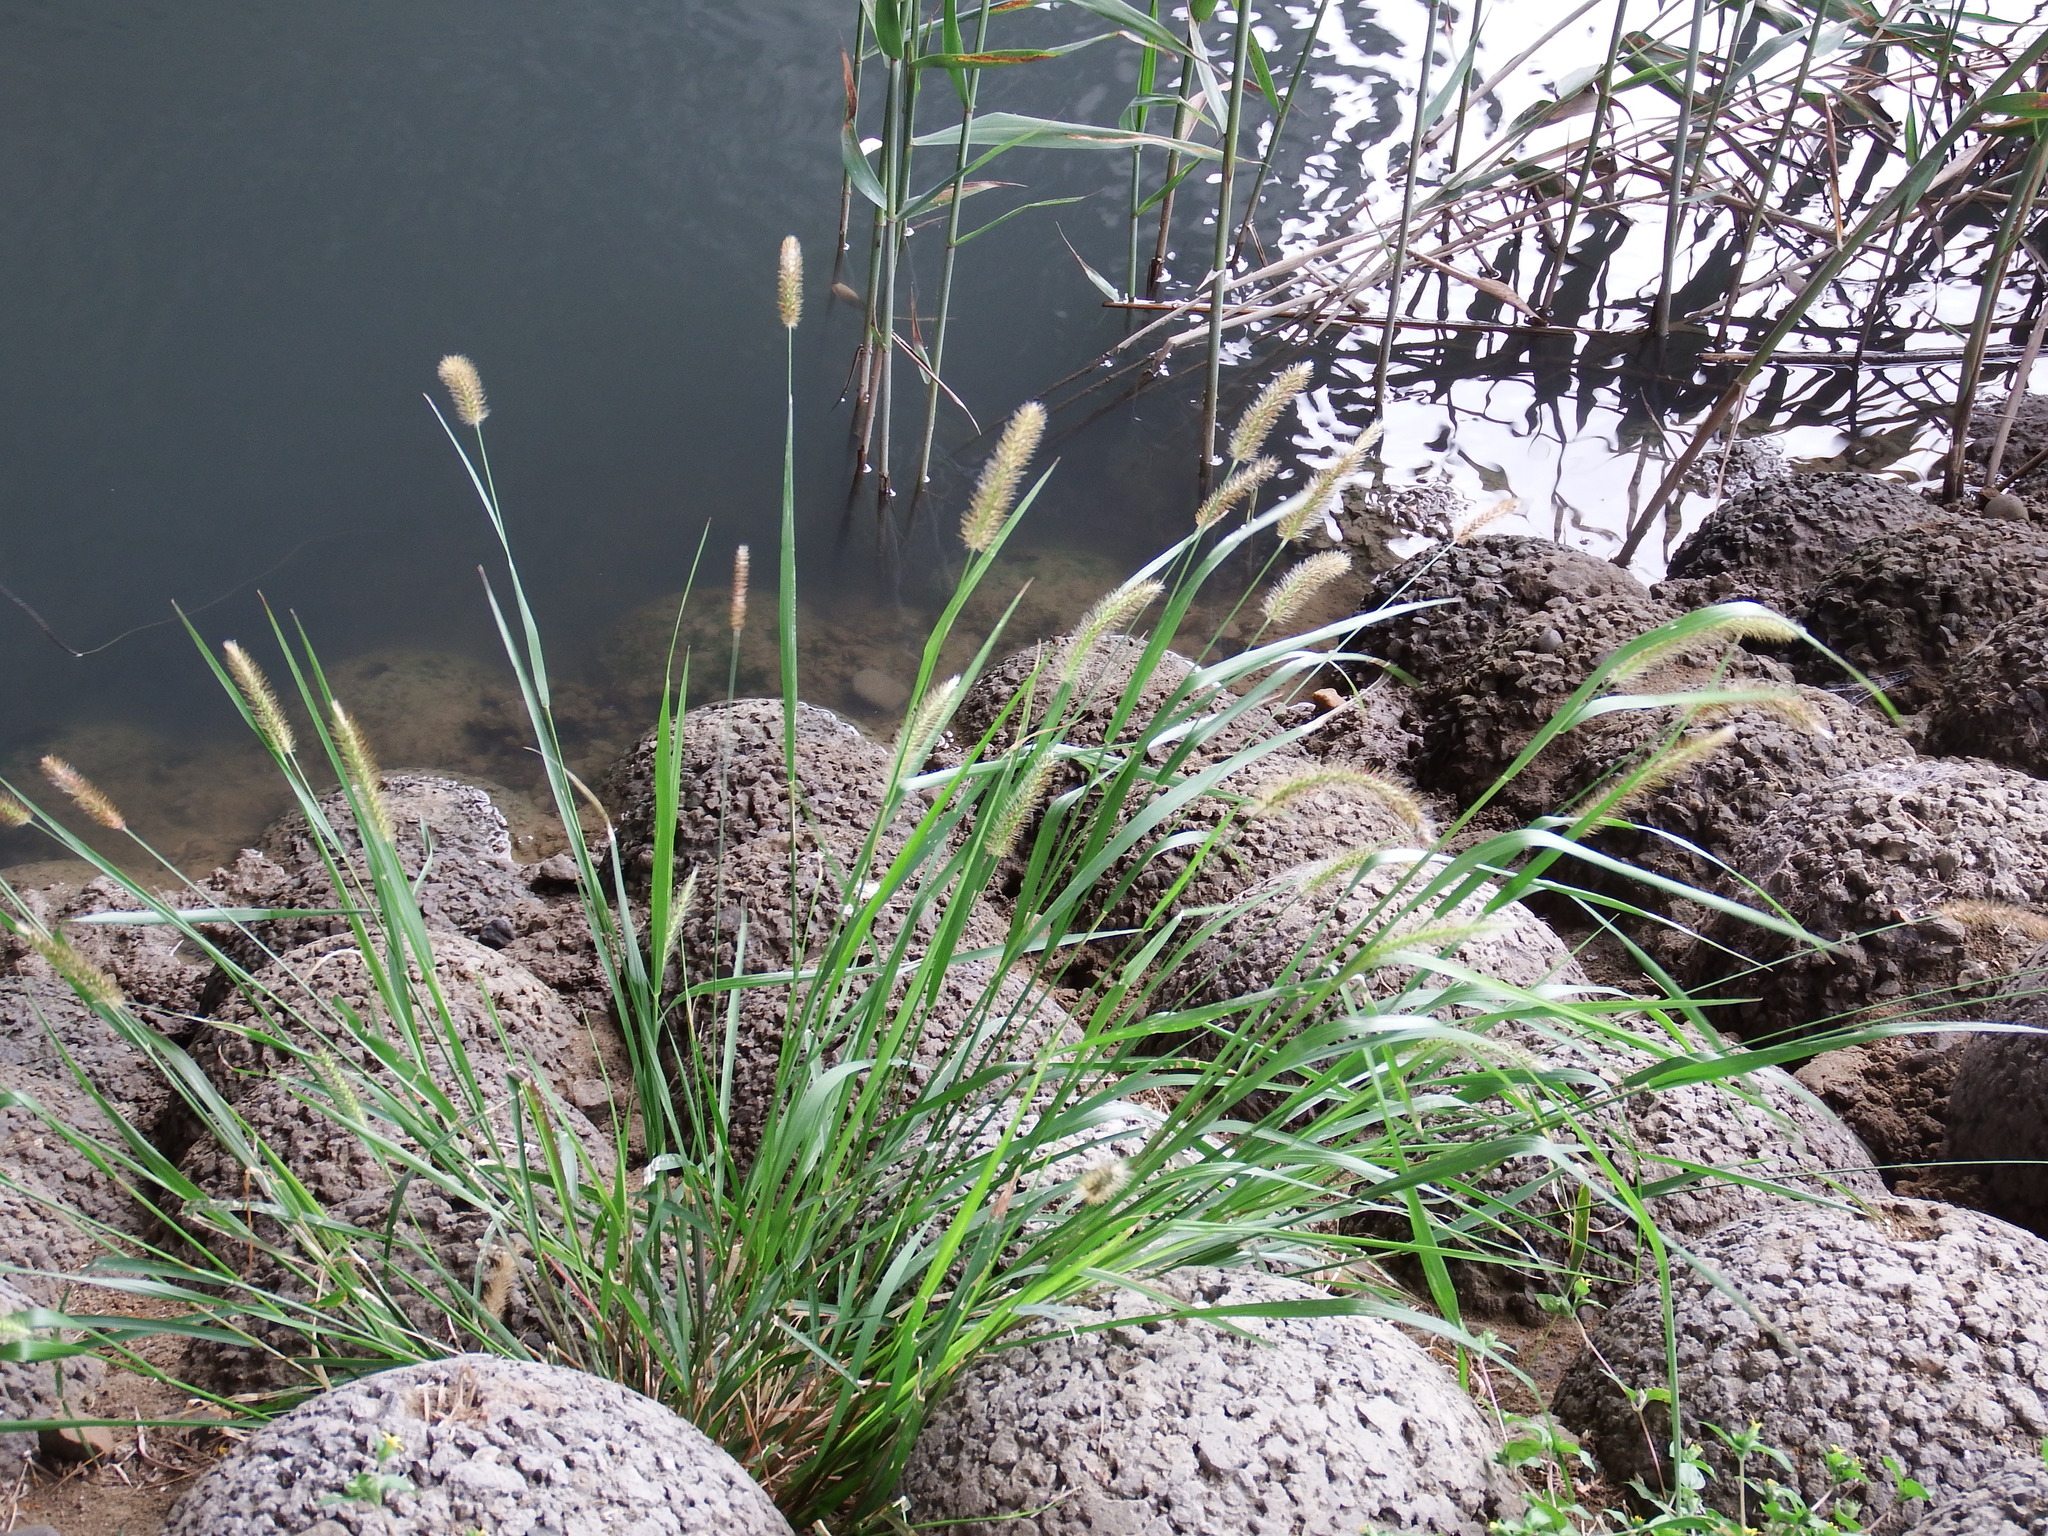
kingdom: Plantae
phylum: Tracheophyta
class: Liliopsida
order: Poales
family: Poaceae
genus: Setaria
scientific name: Setaria parviflora
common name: Knotroot bristle-grass
